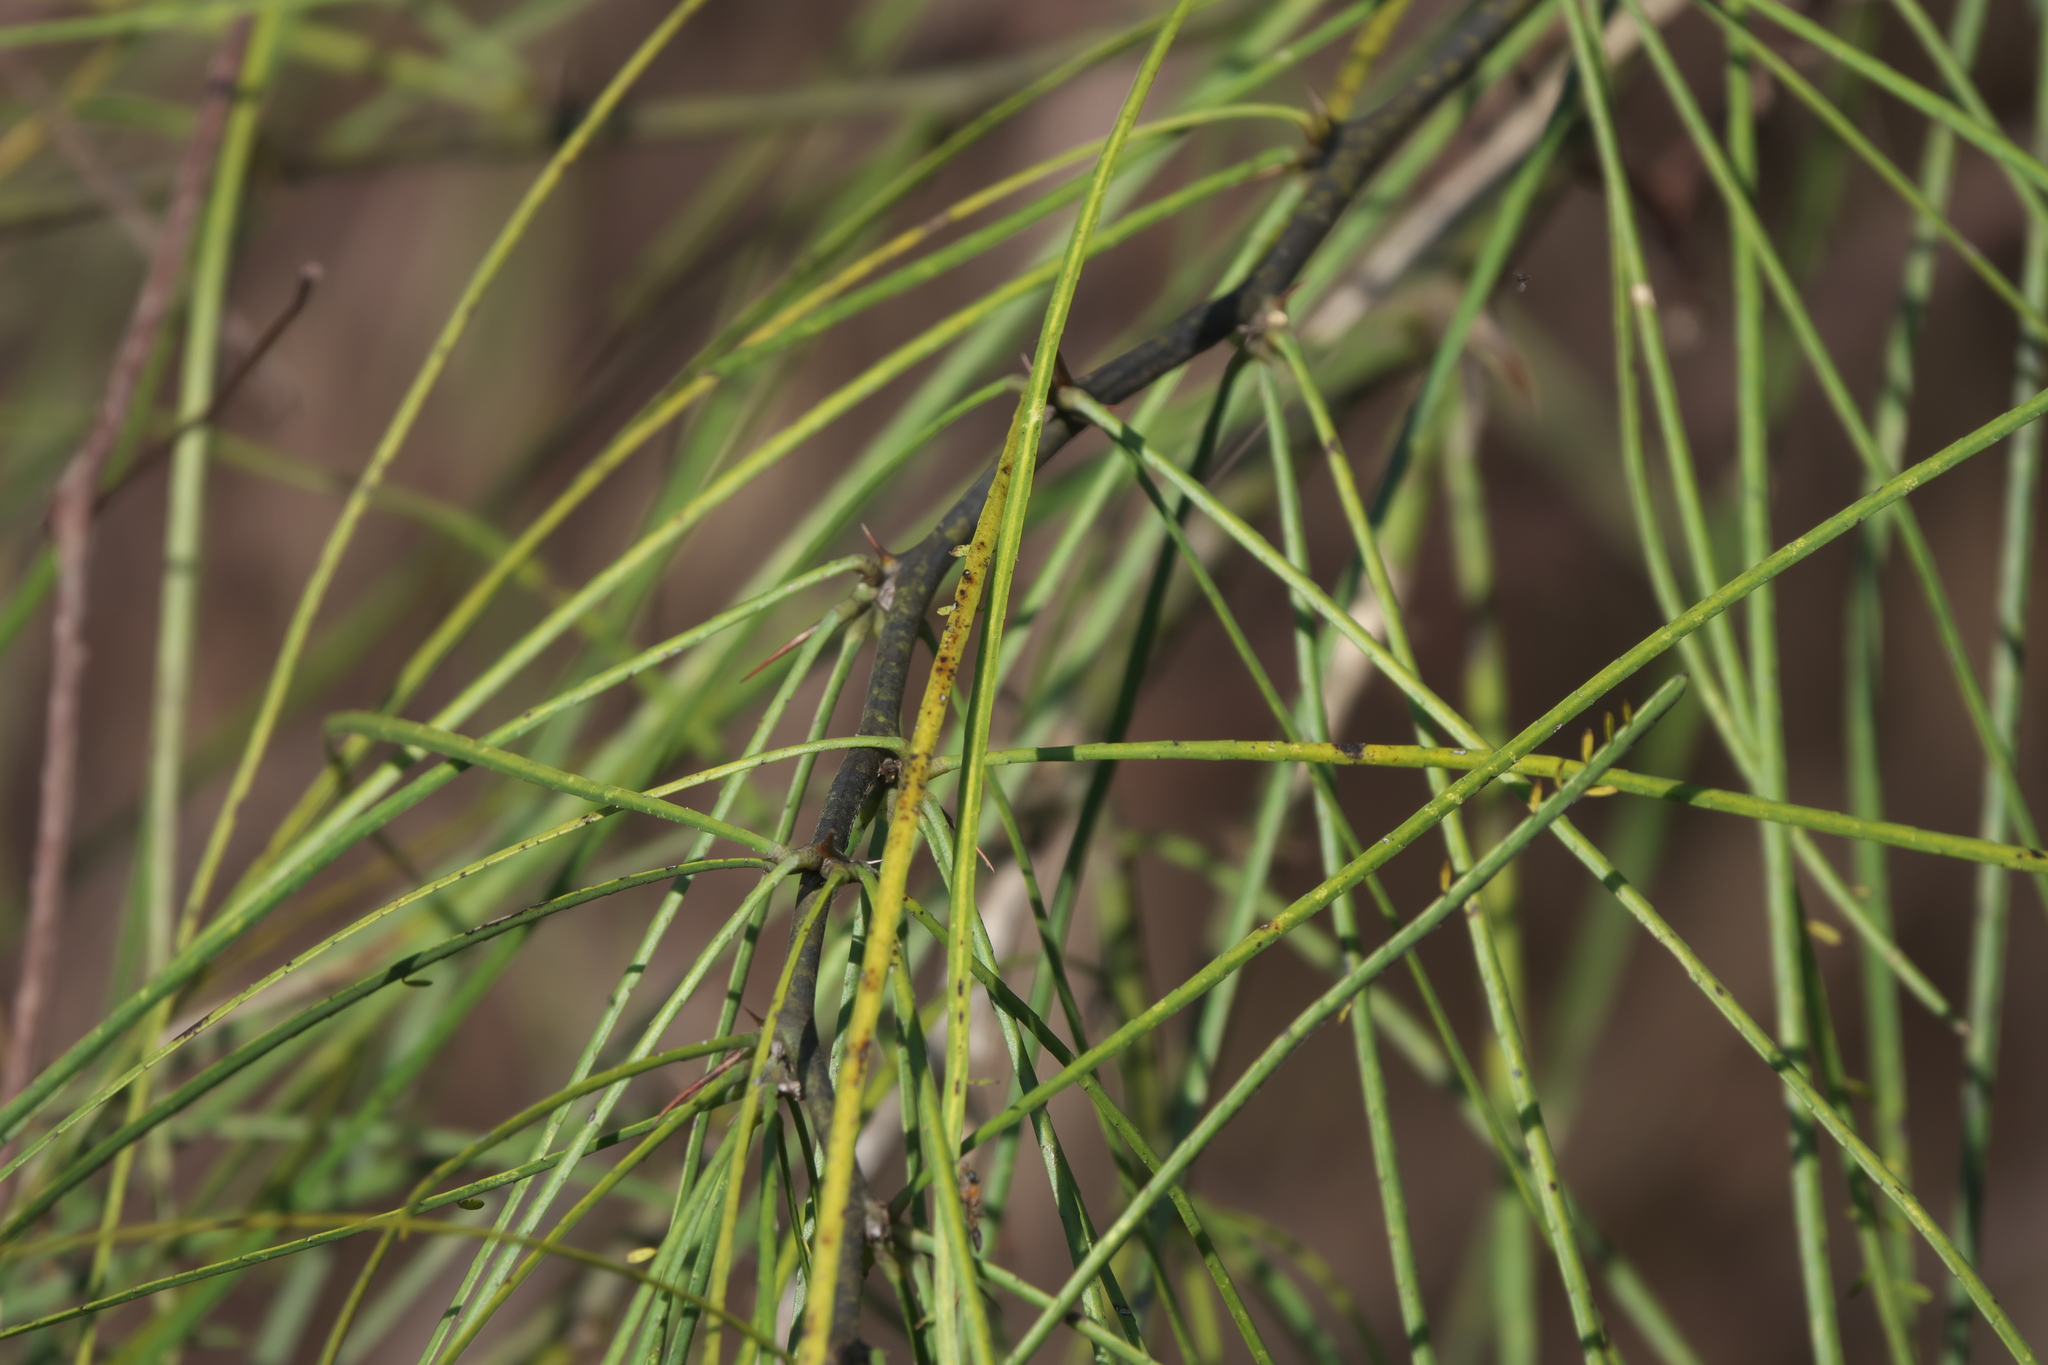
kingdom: Plantae
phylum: Tracheophyta
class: Magnoliopsida
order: Fabales
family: Fabaceae
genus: Parkinsonia
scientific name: Parkinsonia aculeata
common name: Jerusalem thorn
